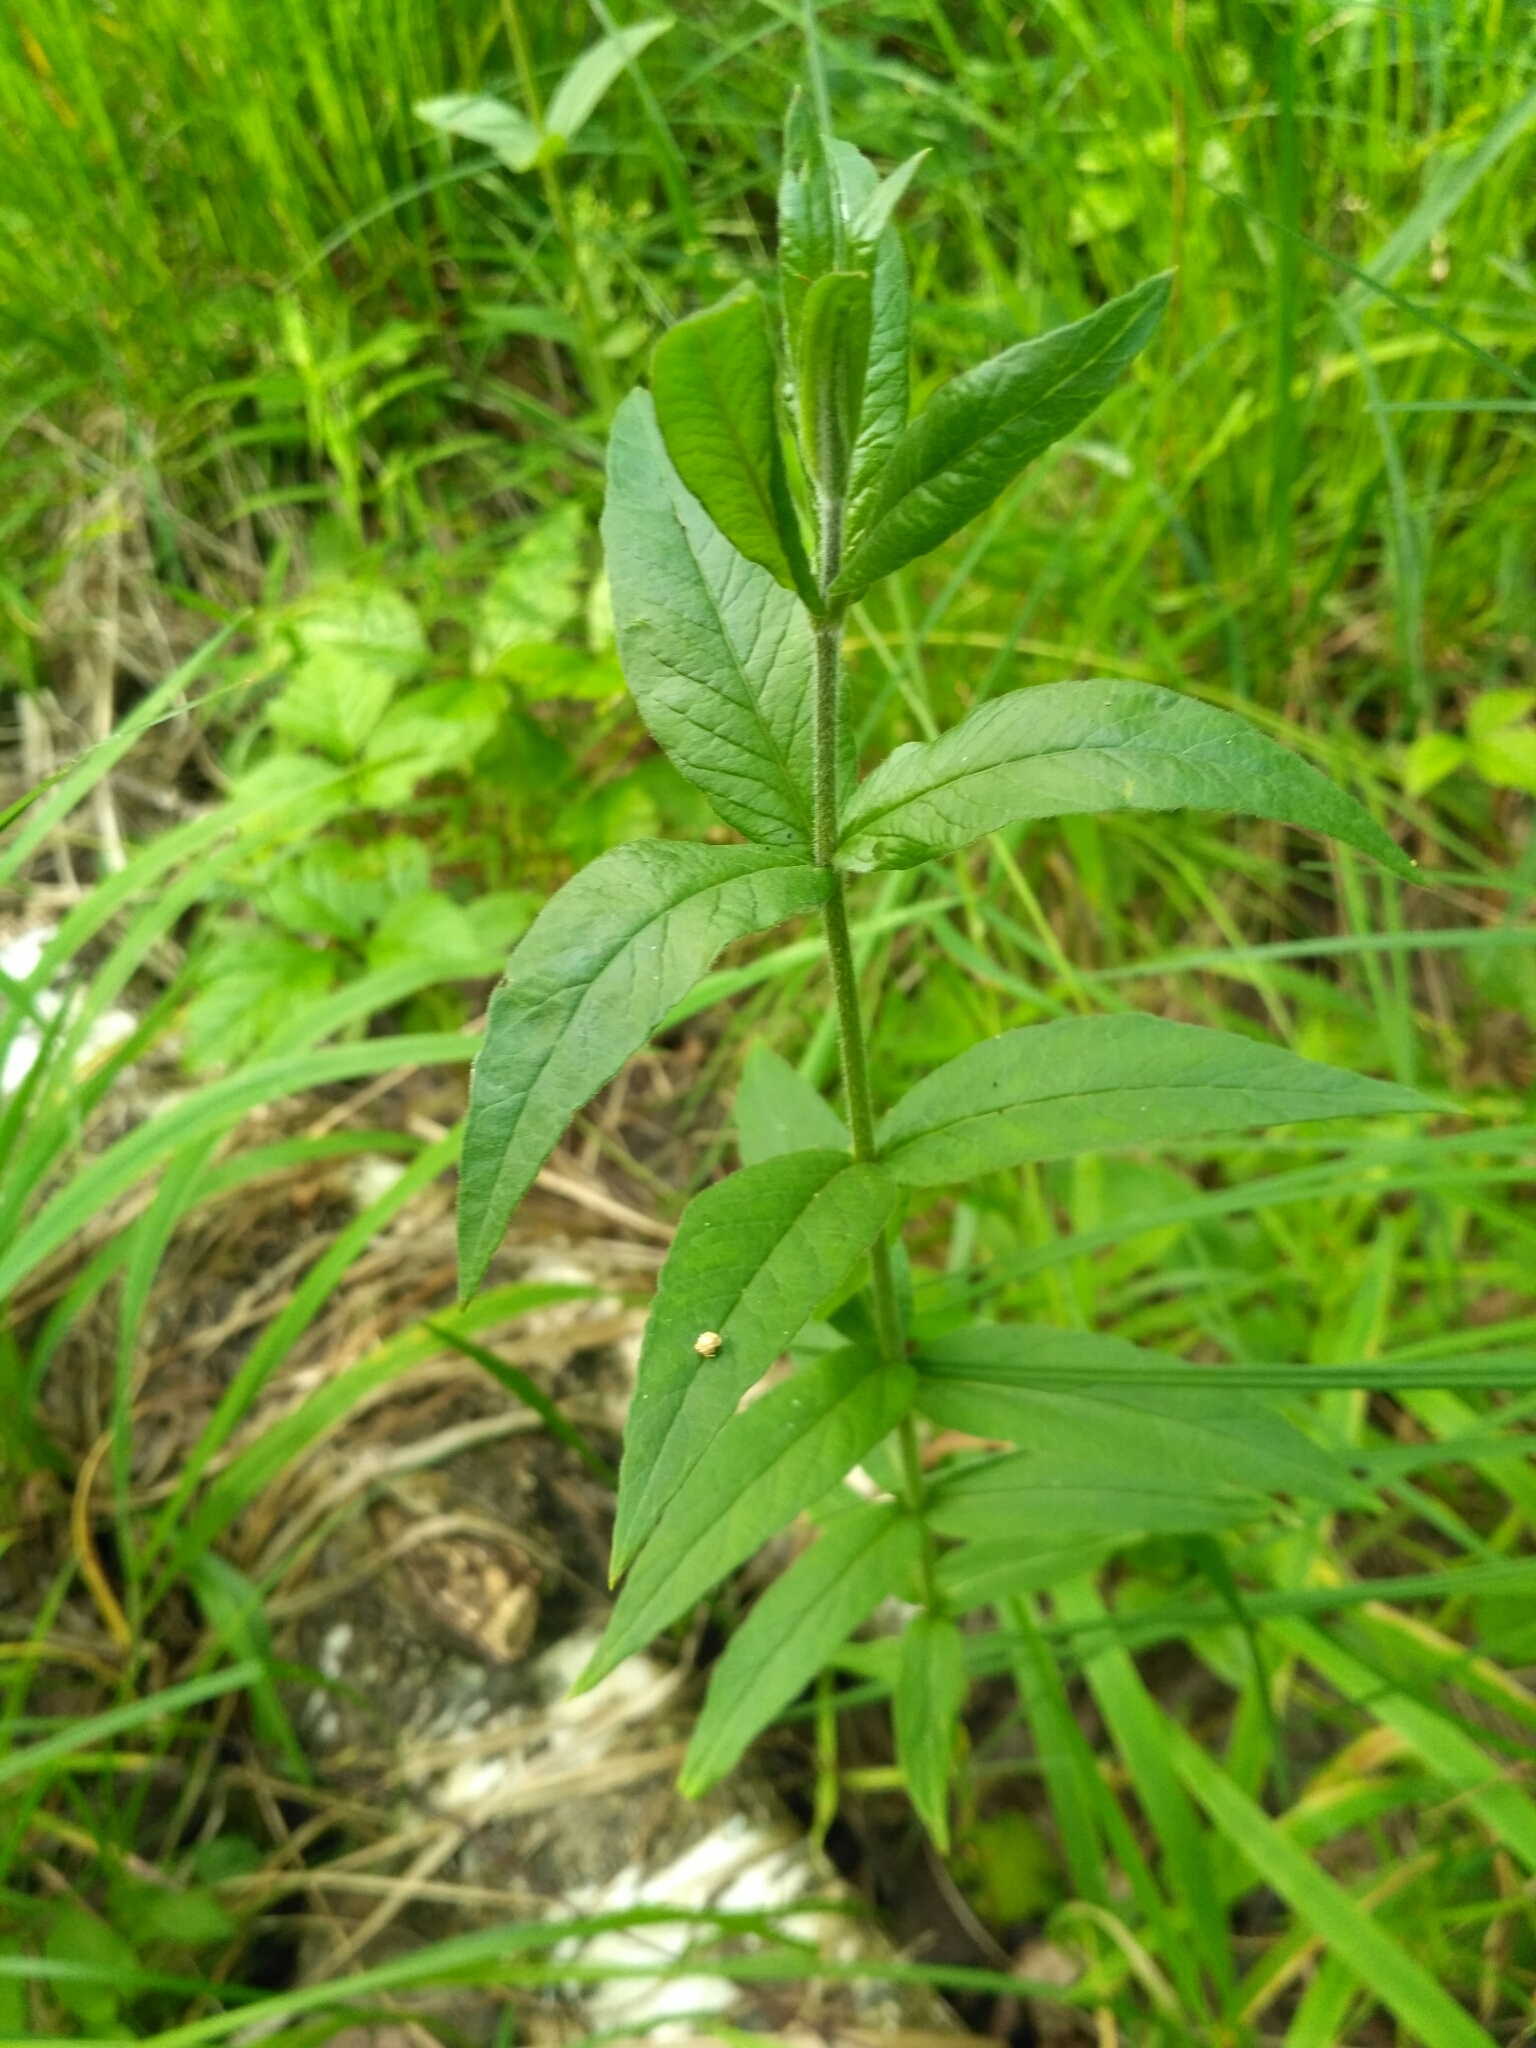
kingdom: Plantae
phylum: Tracheophyta
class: Magnoliopsida
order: Ericales
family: Primulaceae
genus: Lysimachia
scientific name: Lysimachia vulgaris
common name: Yellow loosestrife
